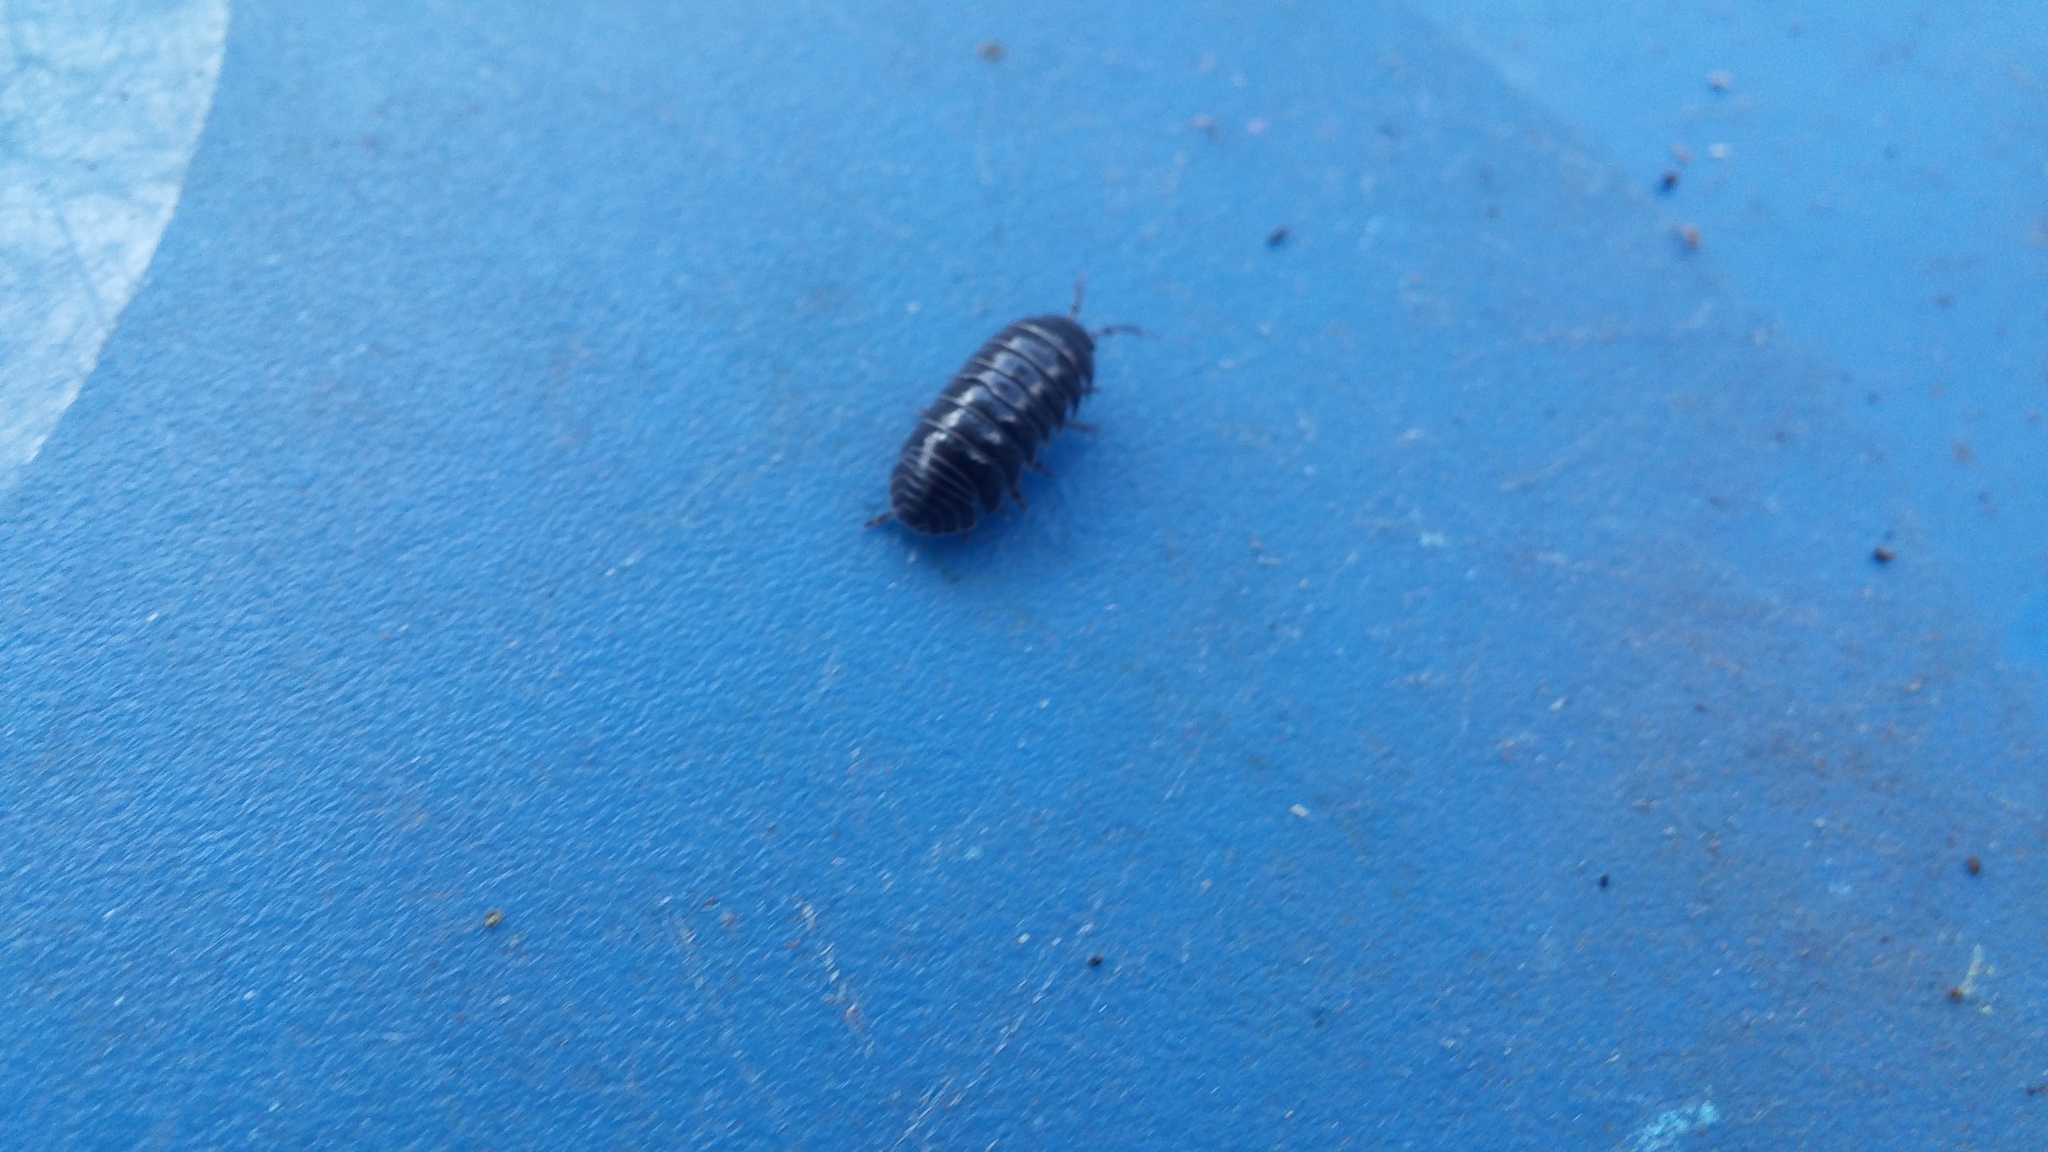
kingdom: Animalia
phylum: Arthropoda
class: Malacostraca
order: Isopoda
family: Armadillidiidae
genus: Armadillidium
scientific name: Armadillidium vulgare
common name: Common pill woodlouse
